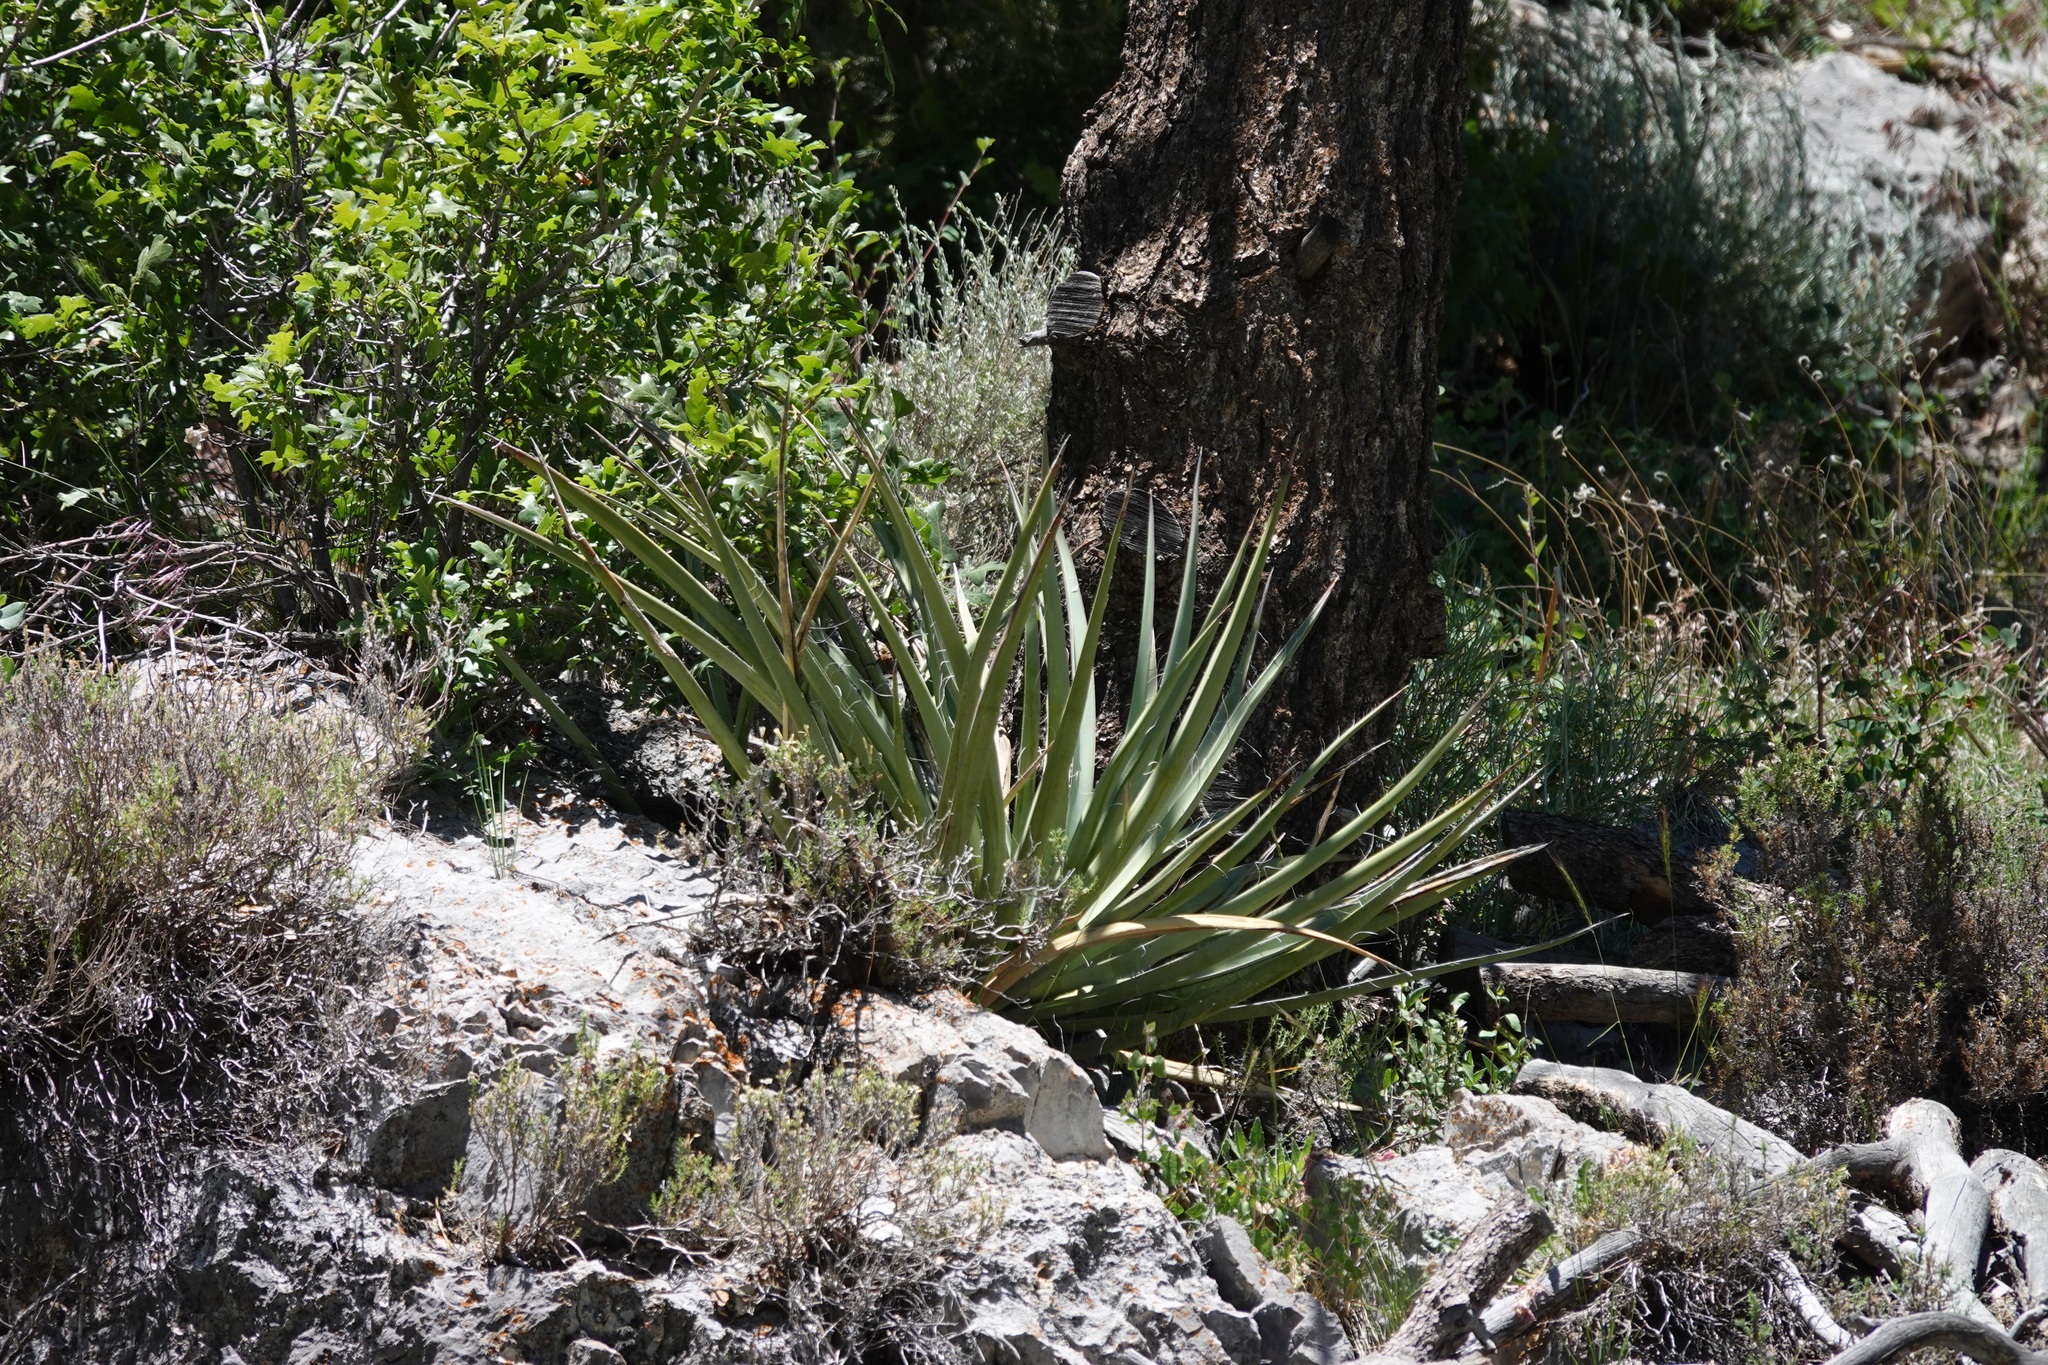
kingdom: Plantae
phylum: Tracheophyta
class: Liliopsida
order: Asparagales
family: Asparagaceae
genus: Yucca
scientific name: Yucca baccata
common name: Banana yucca
